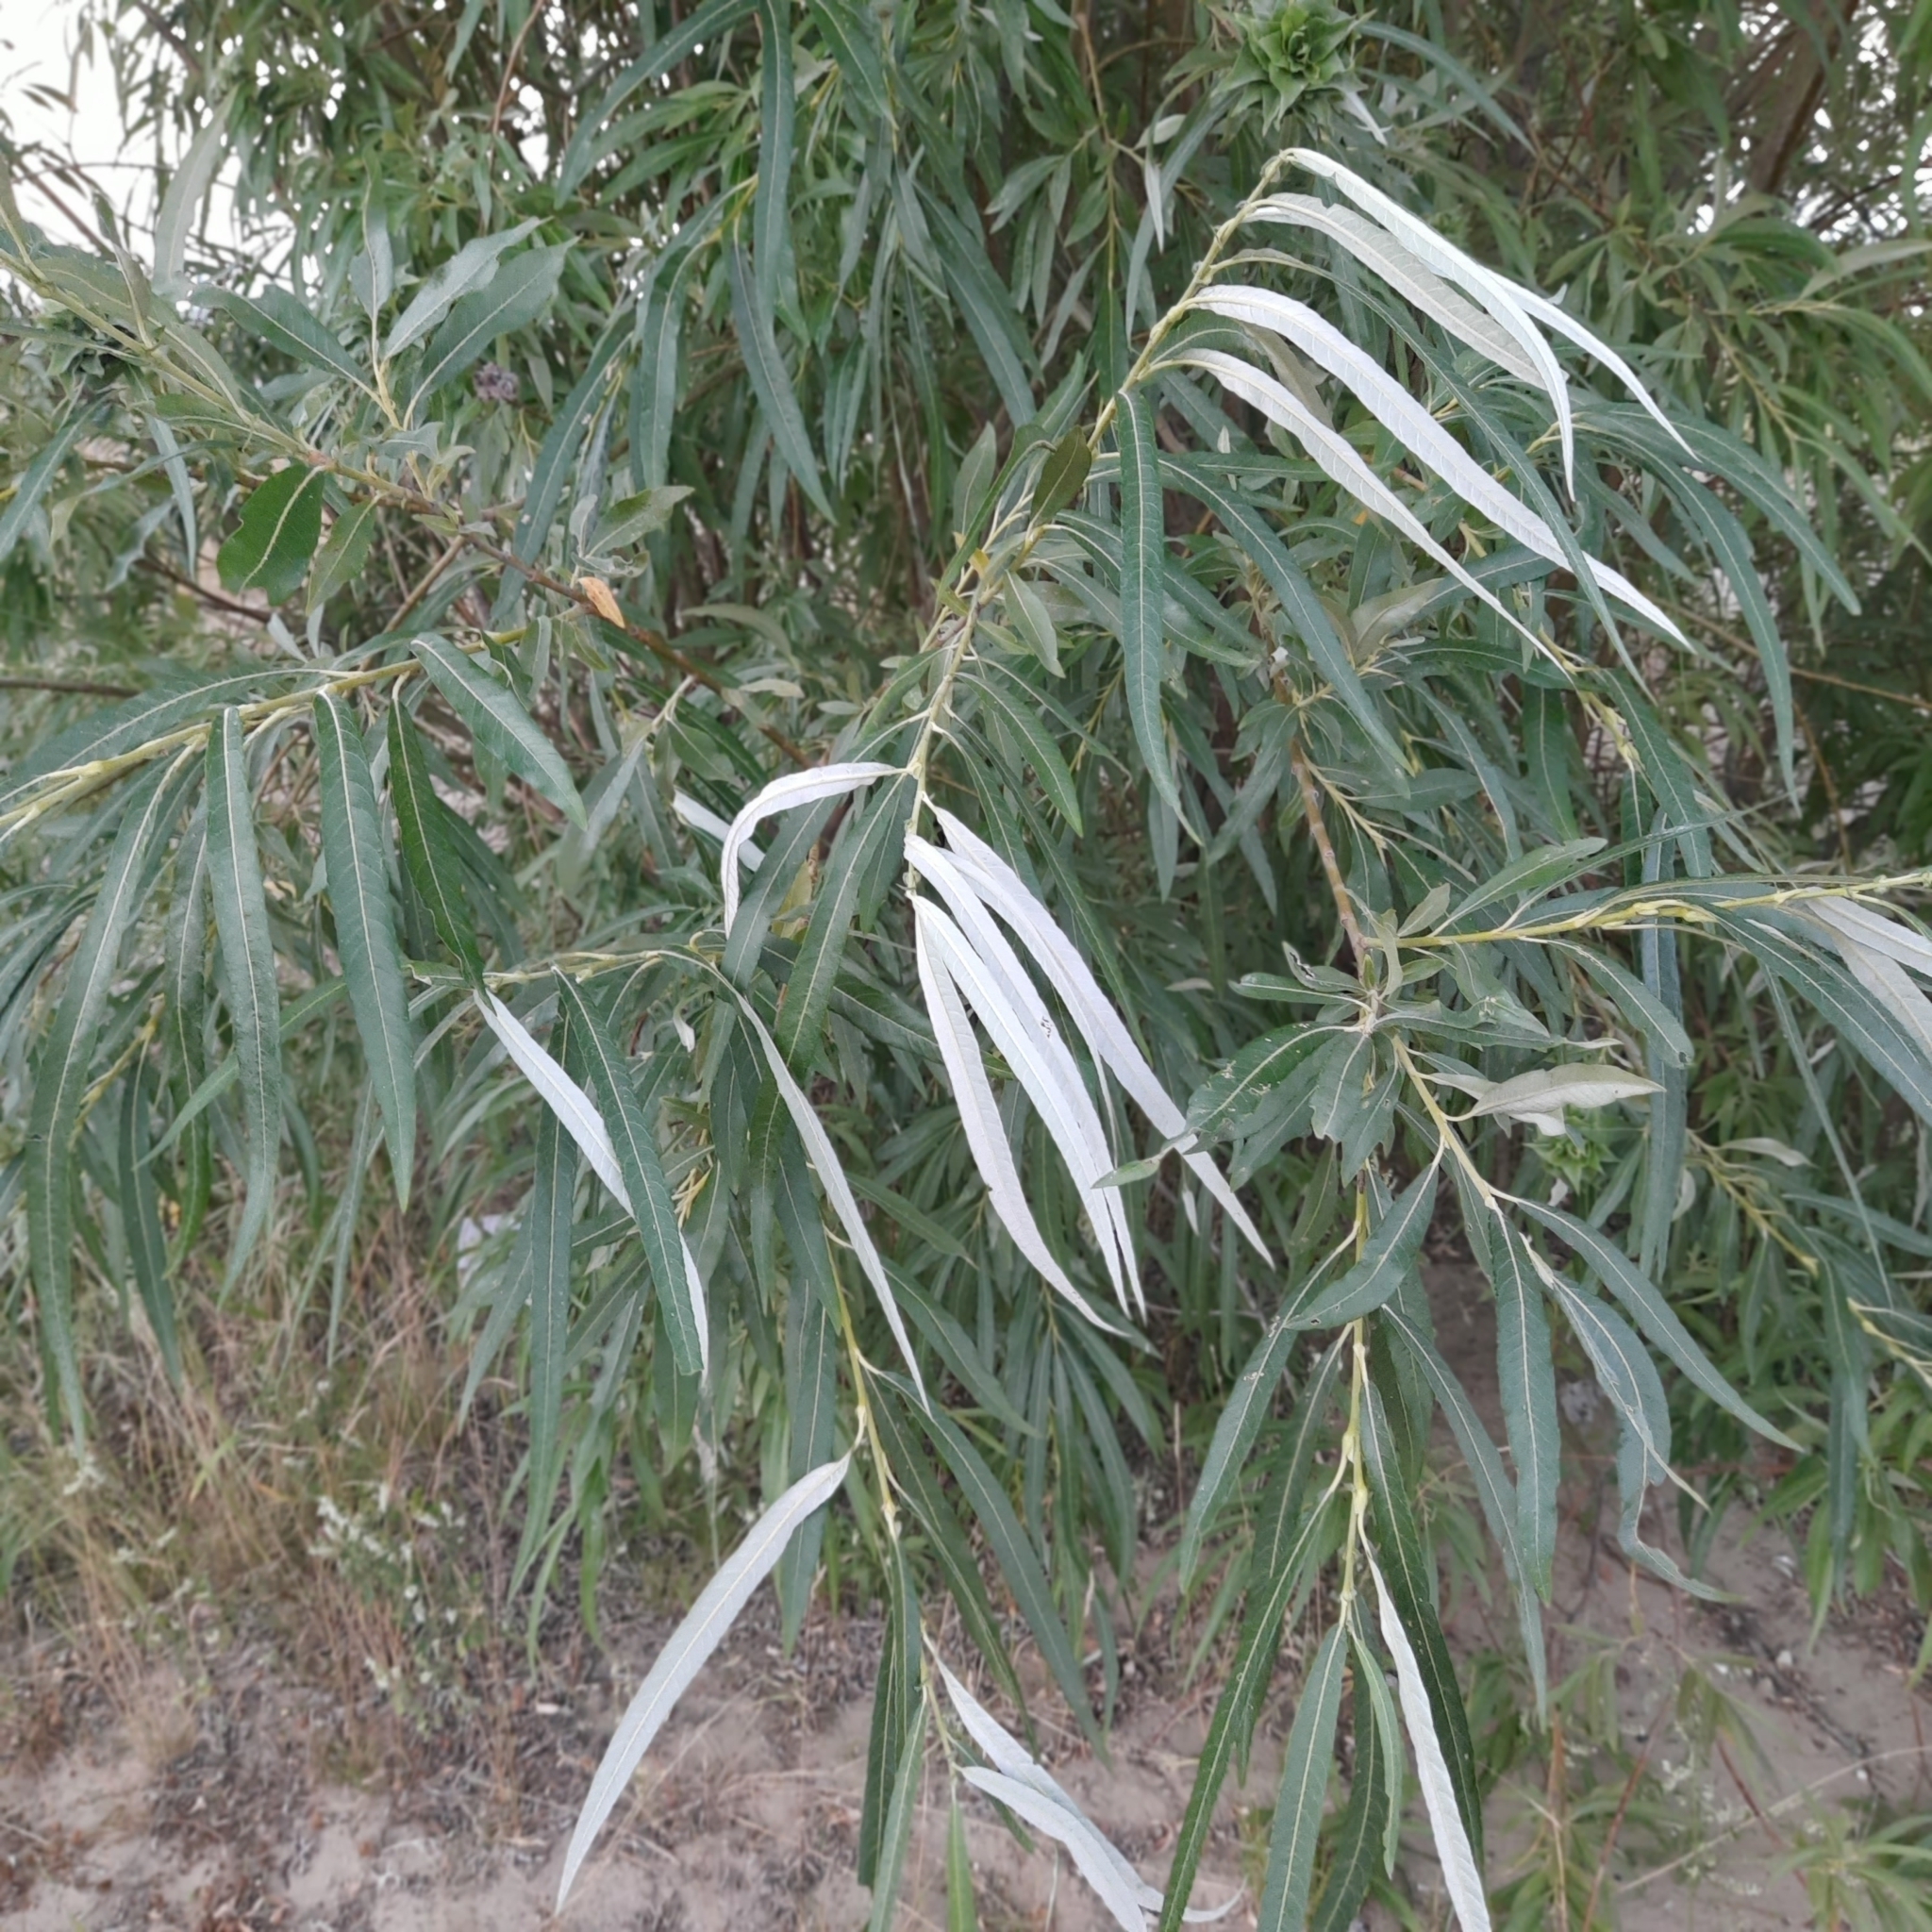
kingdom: Plantae
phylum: Tracheophyta
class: Magnoliopsida
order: Malpighiales
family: Salicaceae
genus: Salix
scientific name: Salix viminalis
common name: Osier
